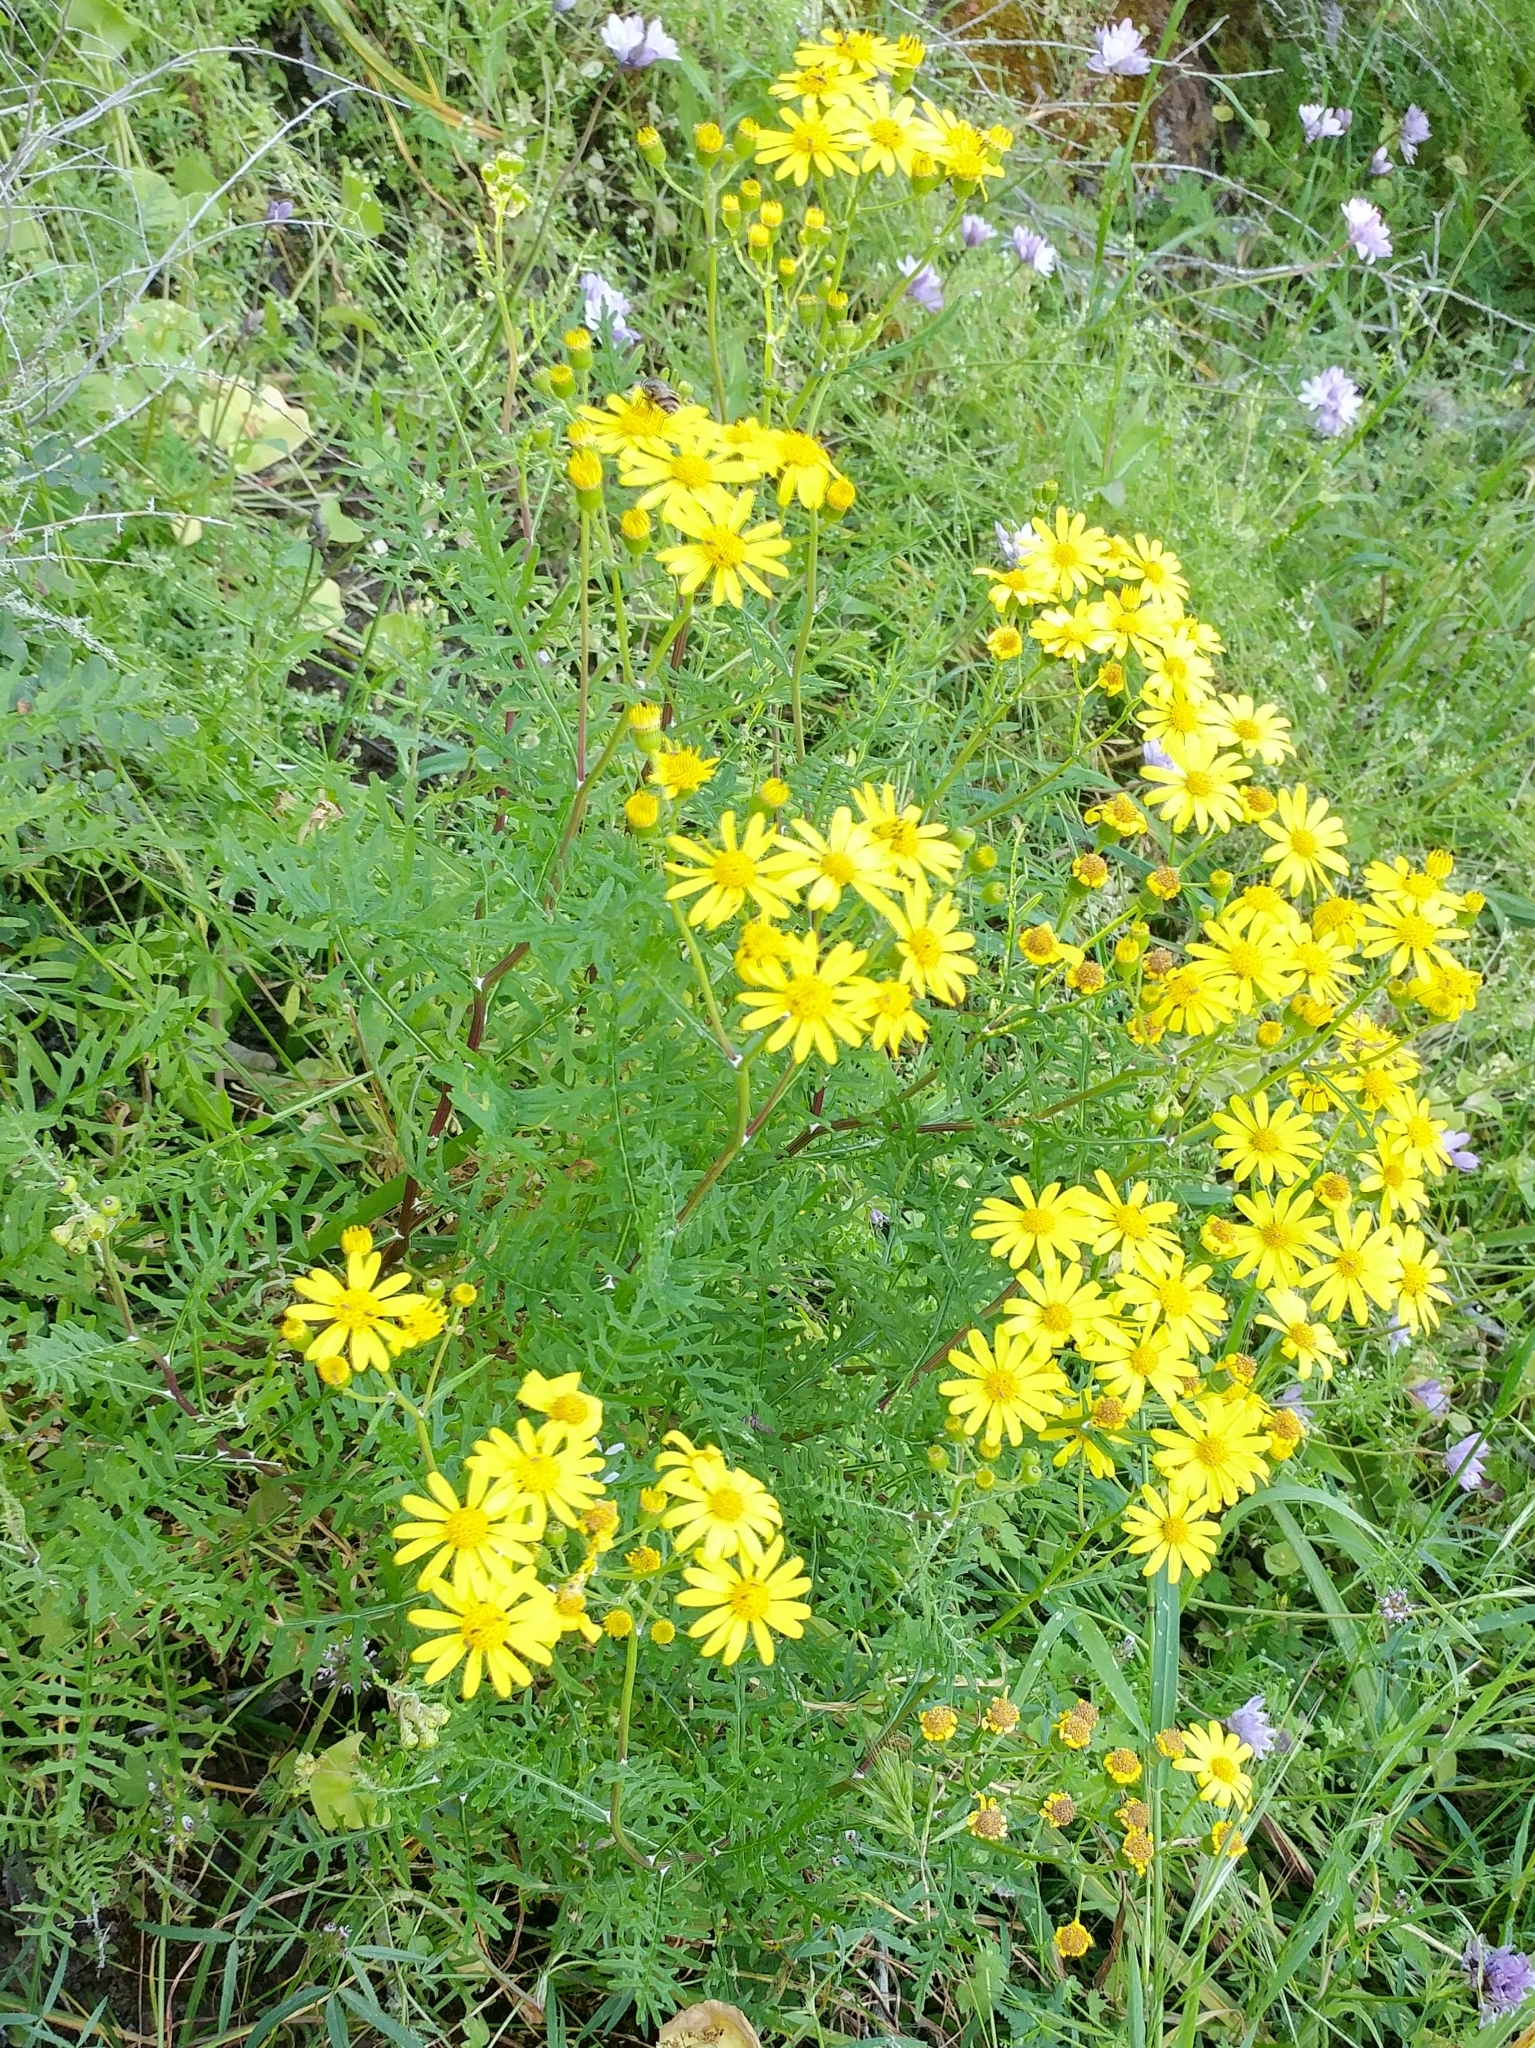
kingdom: Plantae
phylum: Tracheophyta
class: Magnoliopsida
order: Asterales
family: Asteraceae
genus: Senecio
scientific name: Senecio lyonii
